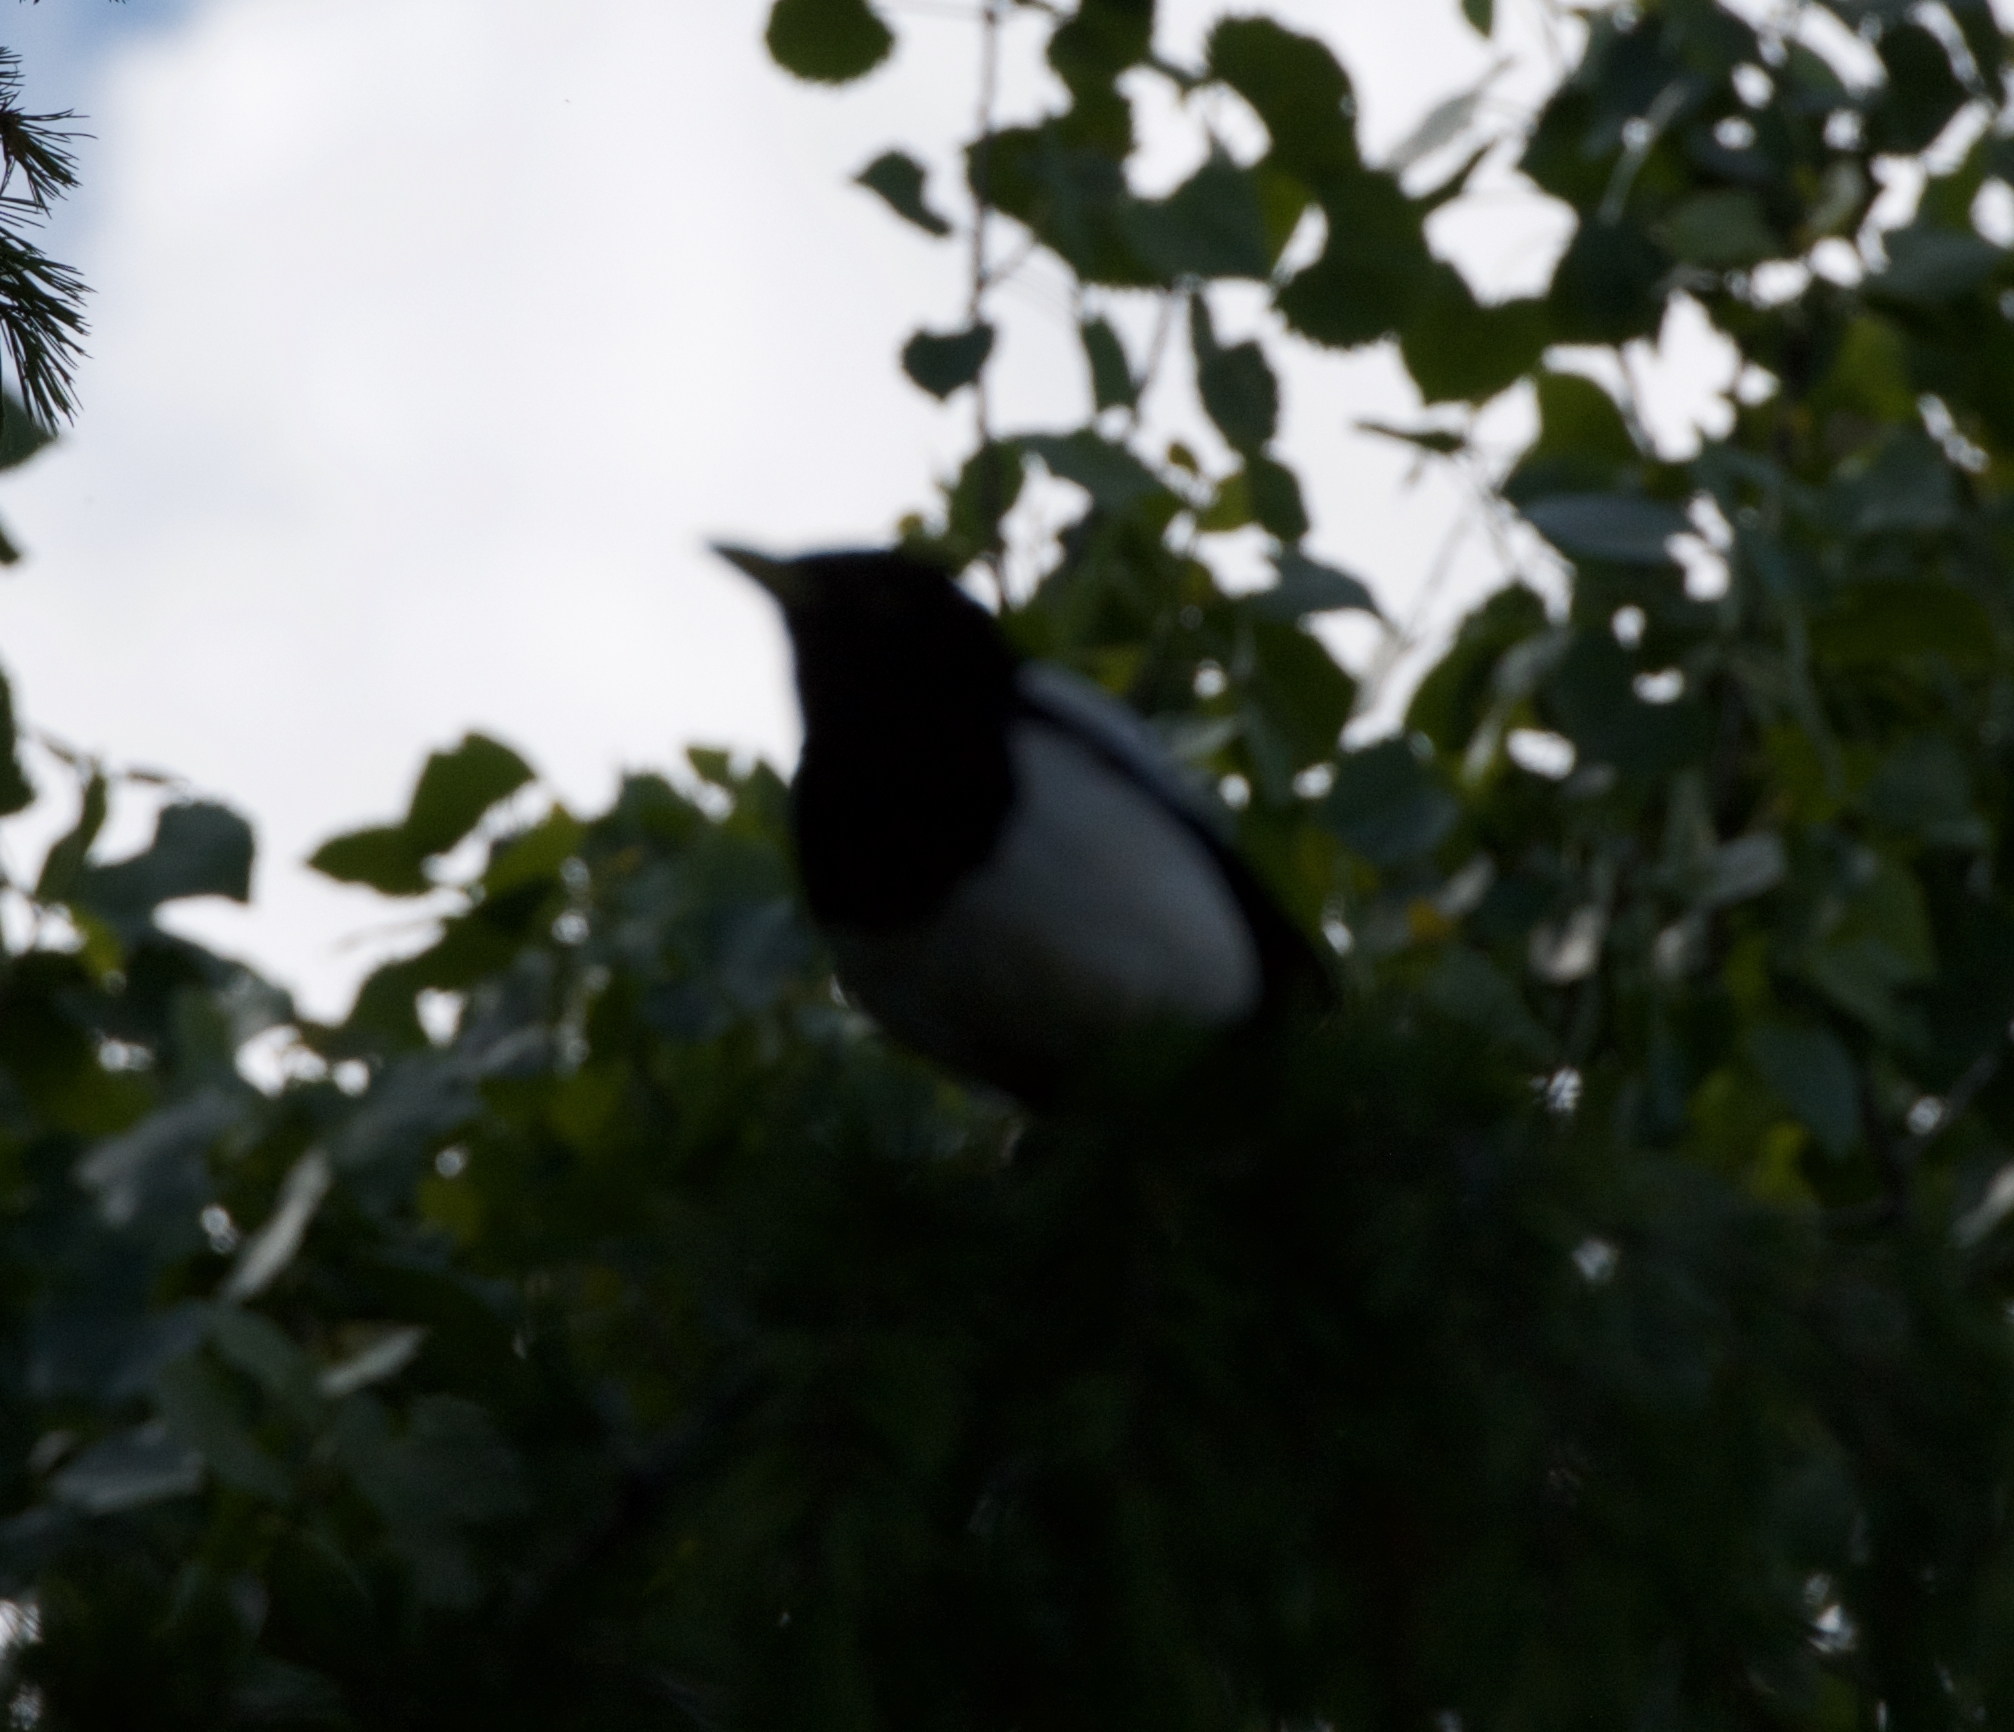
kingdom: Animalia
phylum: Chordata
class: Aves
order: Passeriformes
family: Corvidae
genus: Pica
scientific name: Pica nuttalli
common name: Yellow-billed magpie
